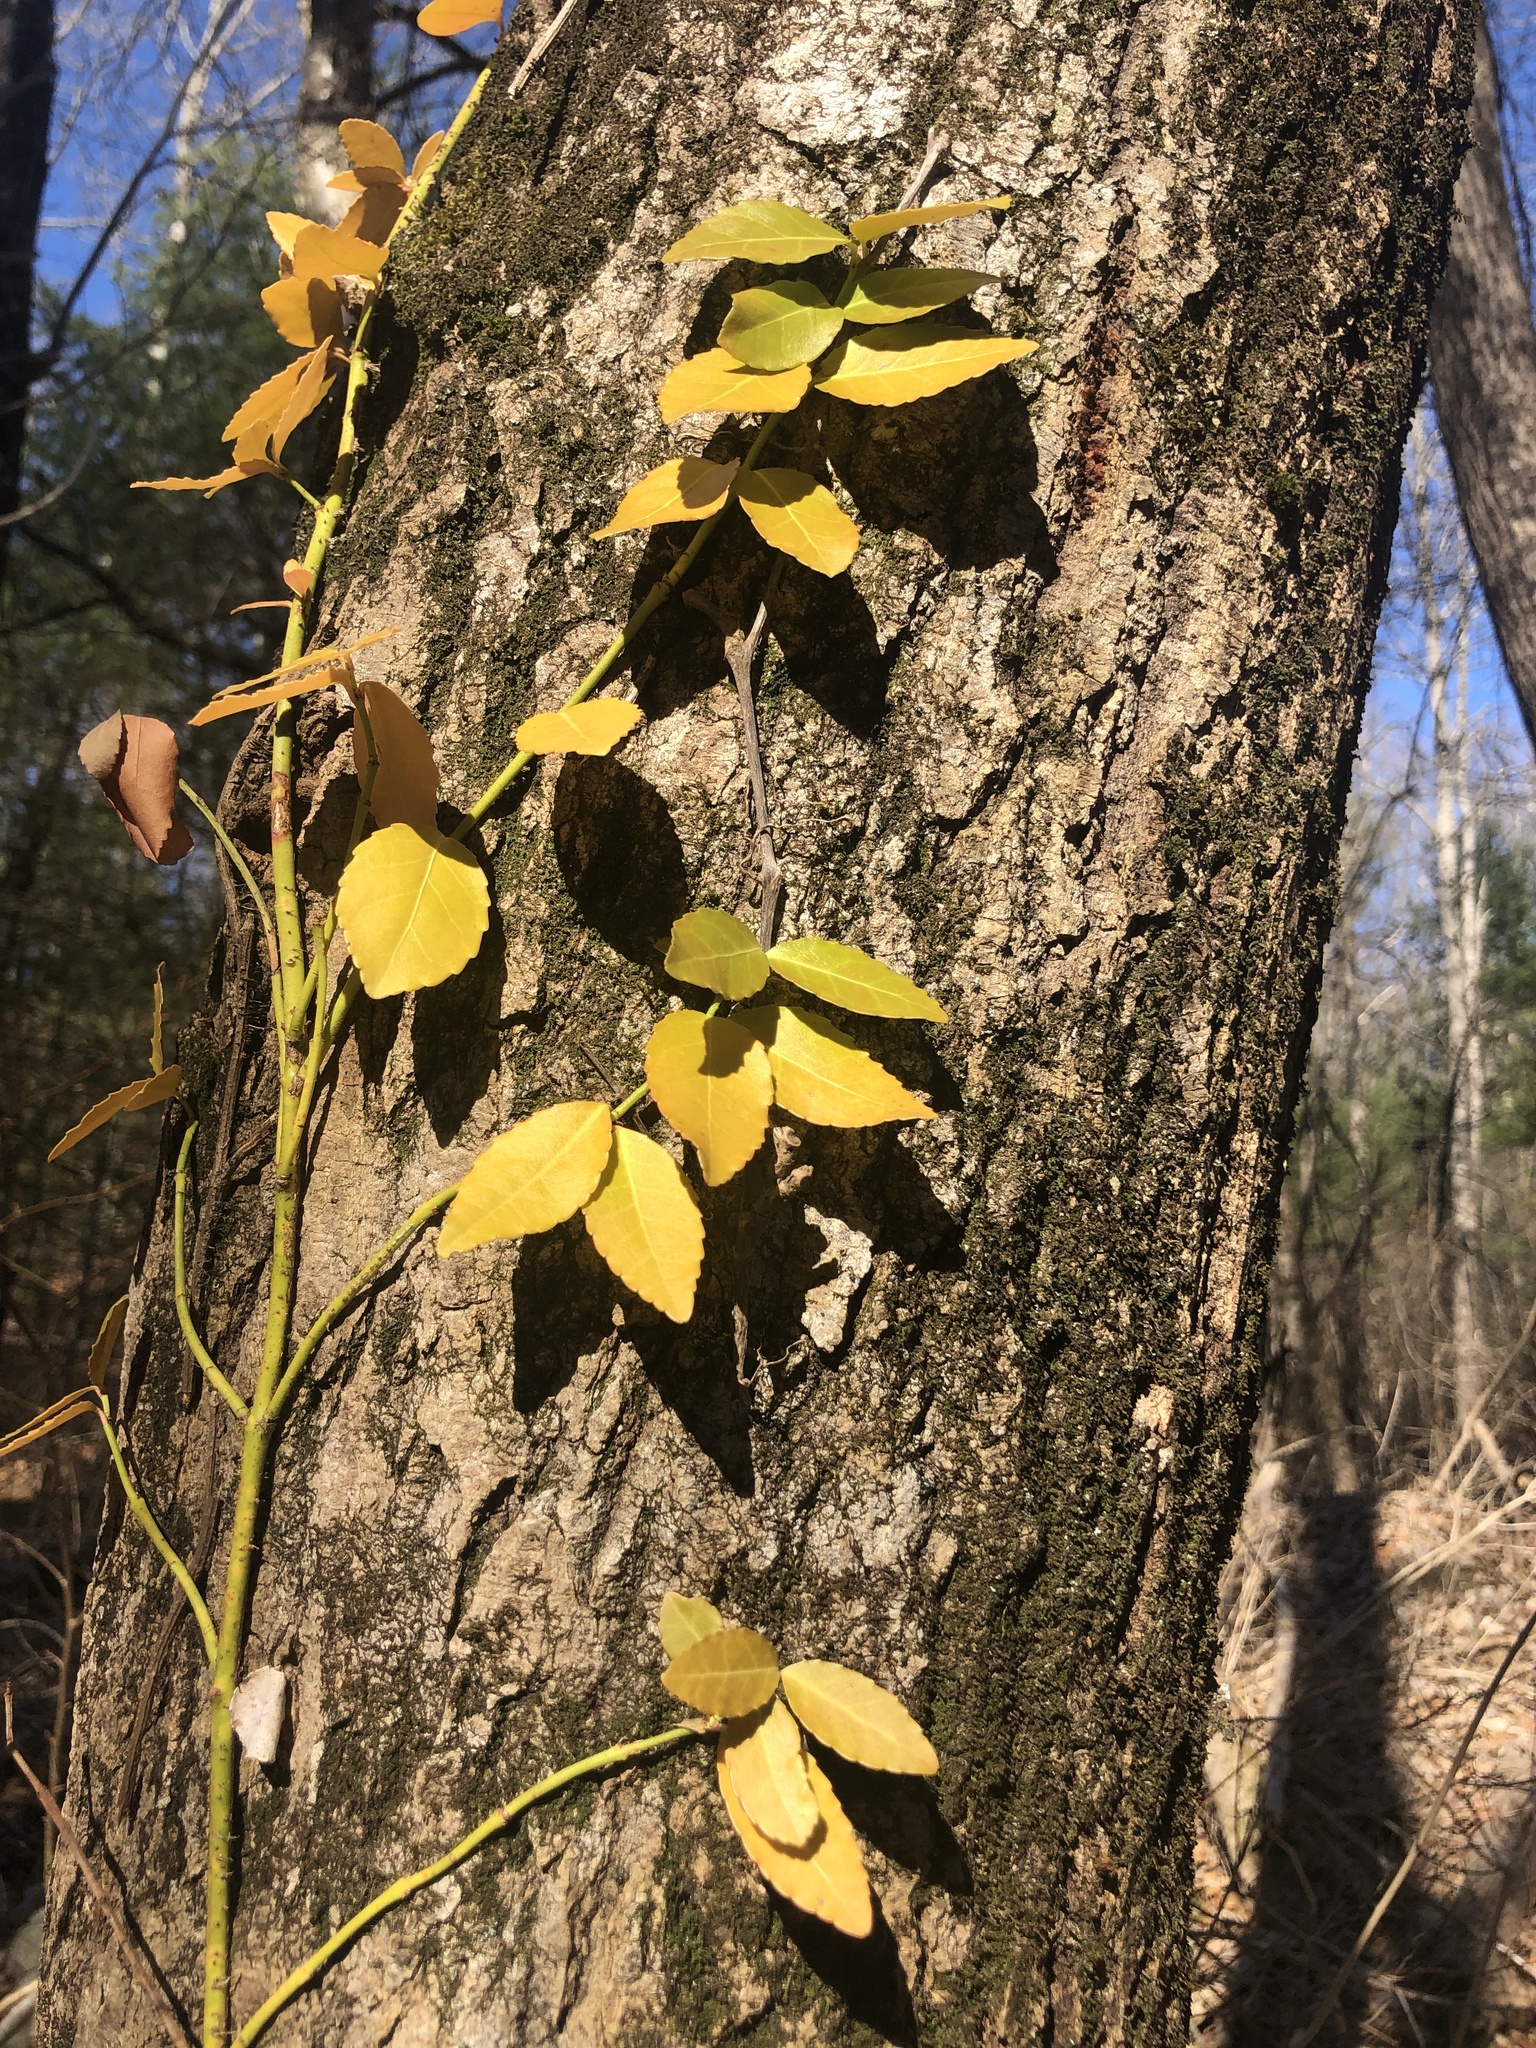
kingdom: Plantae
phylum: Tracheophyta
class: Magnoliopsida
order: Celastrales
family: Celastraceae
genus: Euonymus
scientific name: Euonymus fortunei
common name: Climbing euonymus
